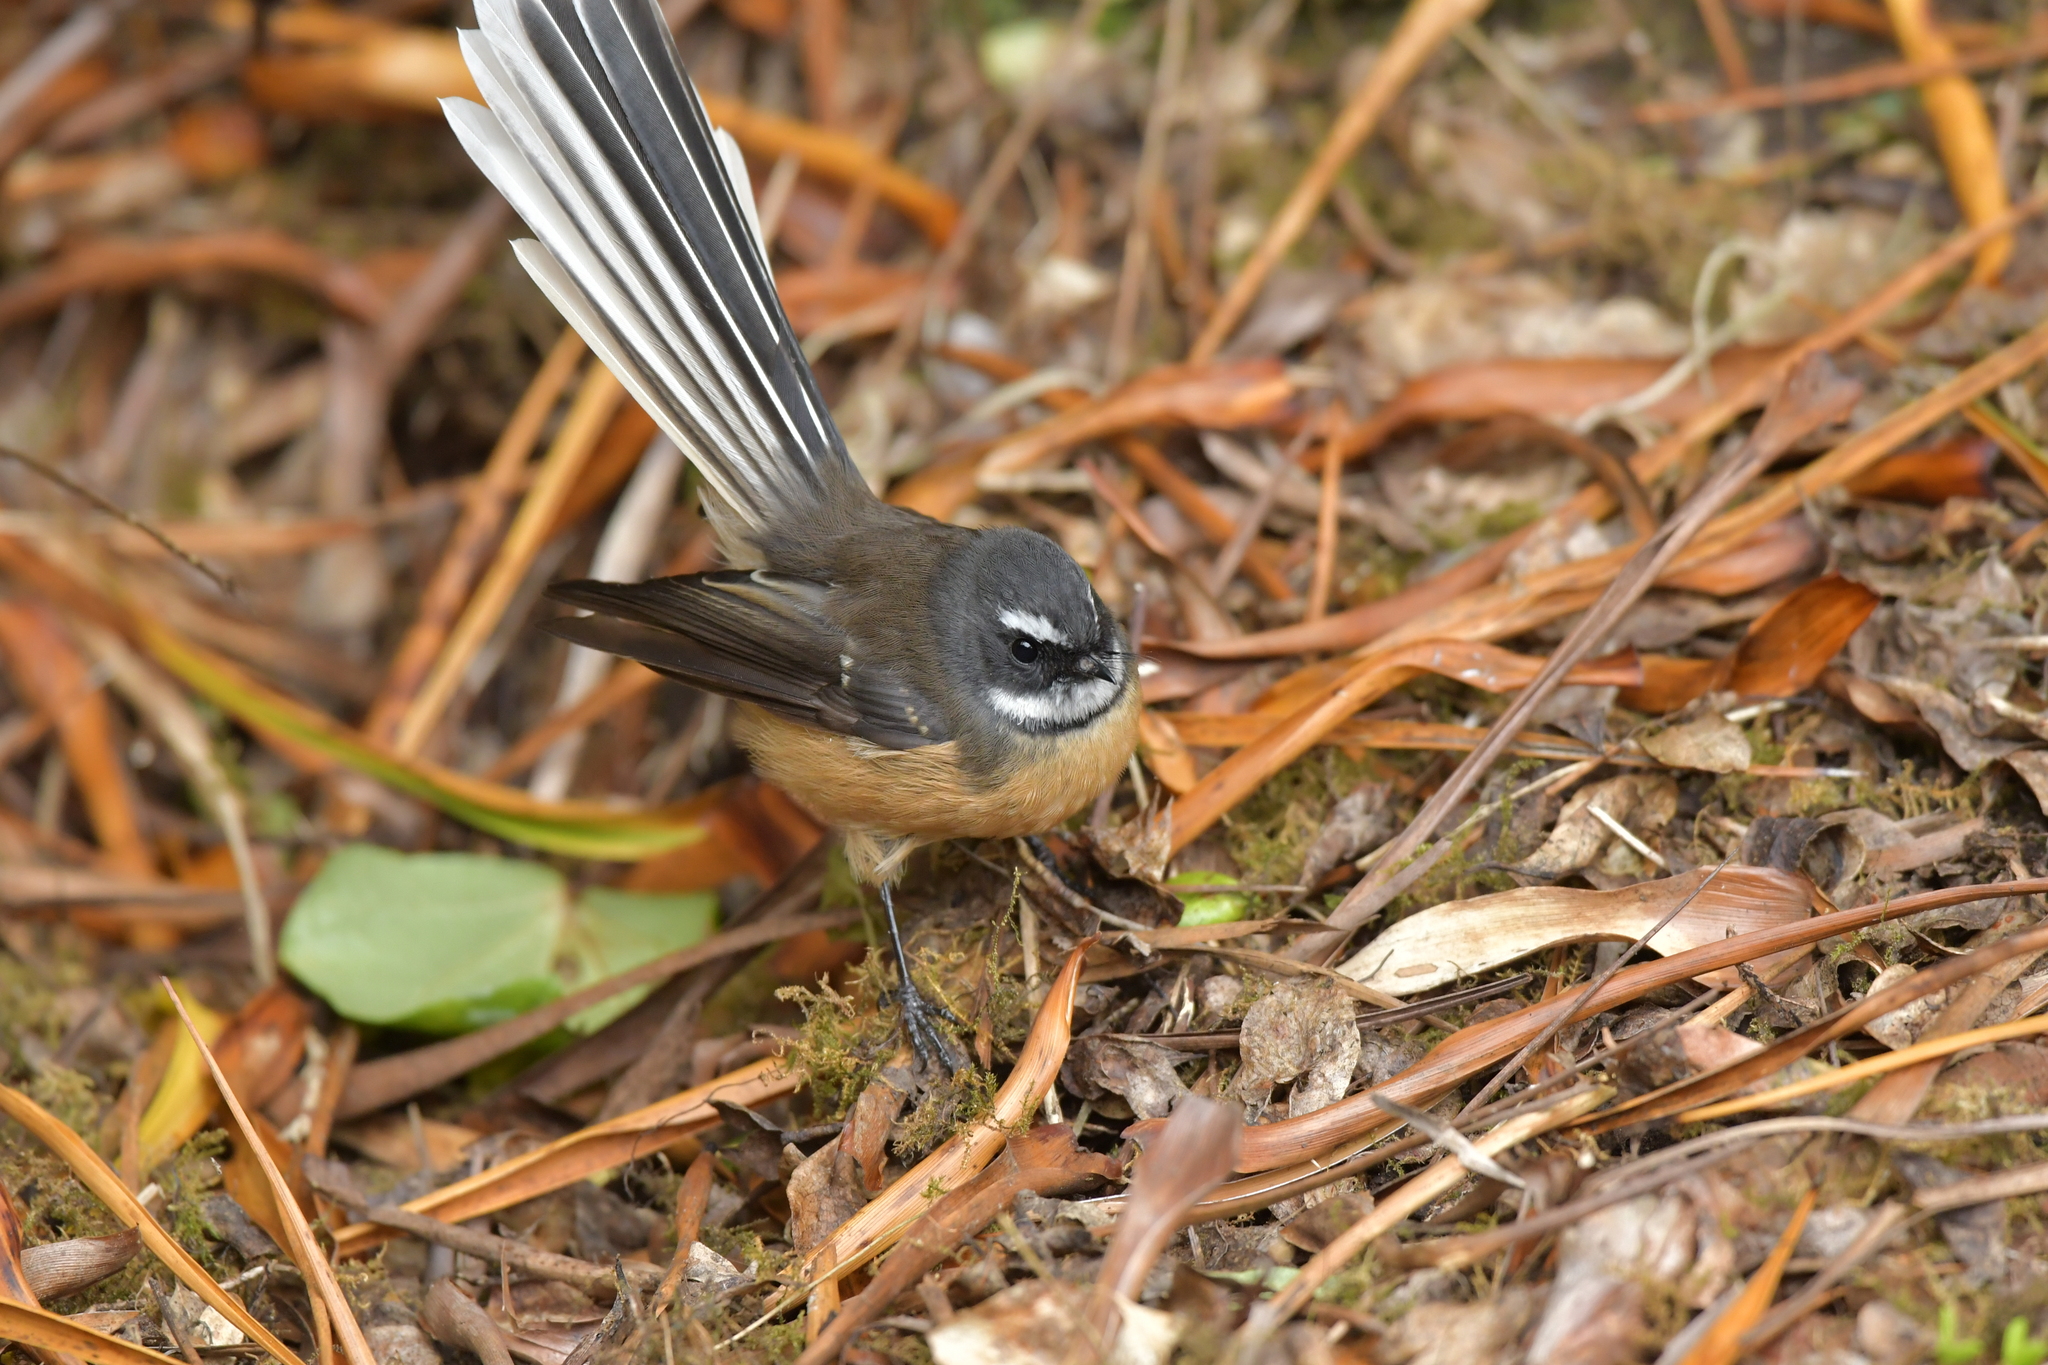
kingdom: Animalia
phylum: Chordata
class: Aves
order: Passeriformes
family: Rhipiduridae
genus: Rhipidura
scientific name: Rhipidura fuliginosa
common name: New zealand fantail
